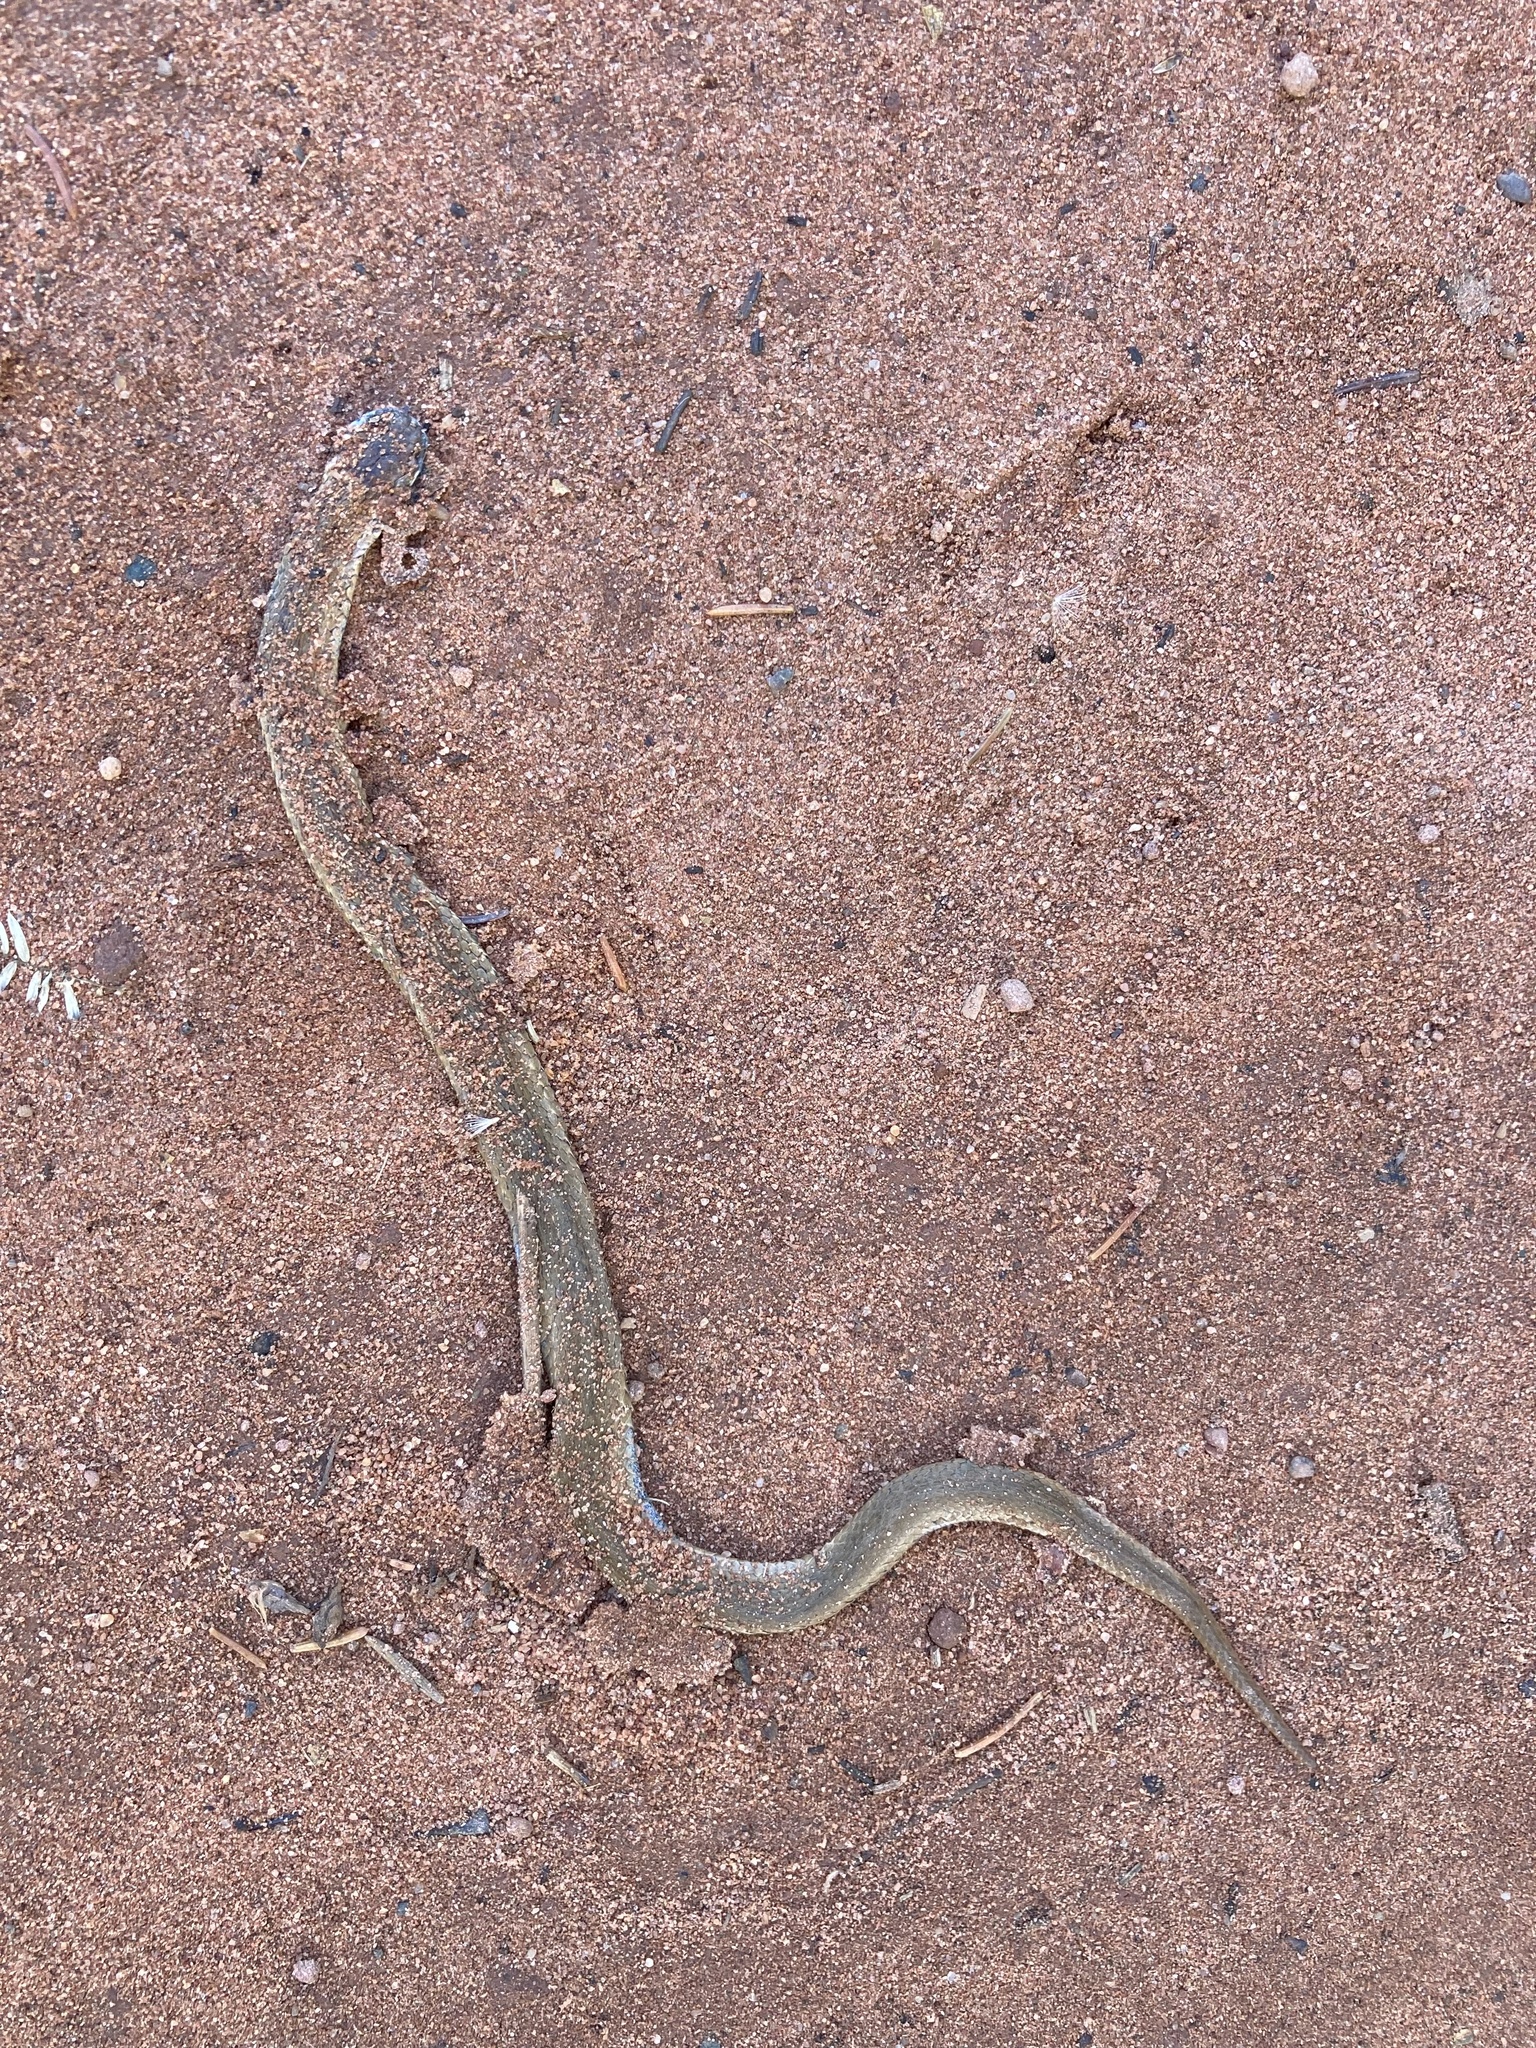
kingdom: Animalia
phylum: Chordata
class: Squamata
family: Colubridae
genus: Storeria
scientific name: Storeria occipitomaculata
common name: Redbelly snake
